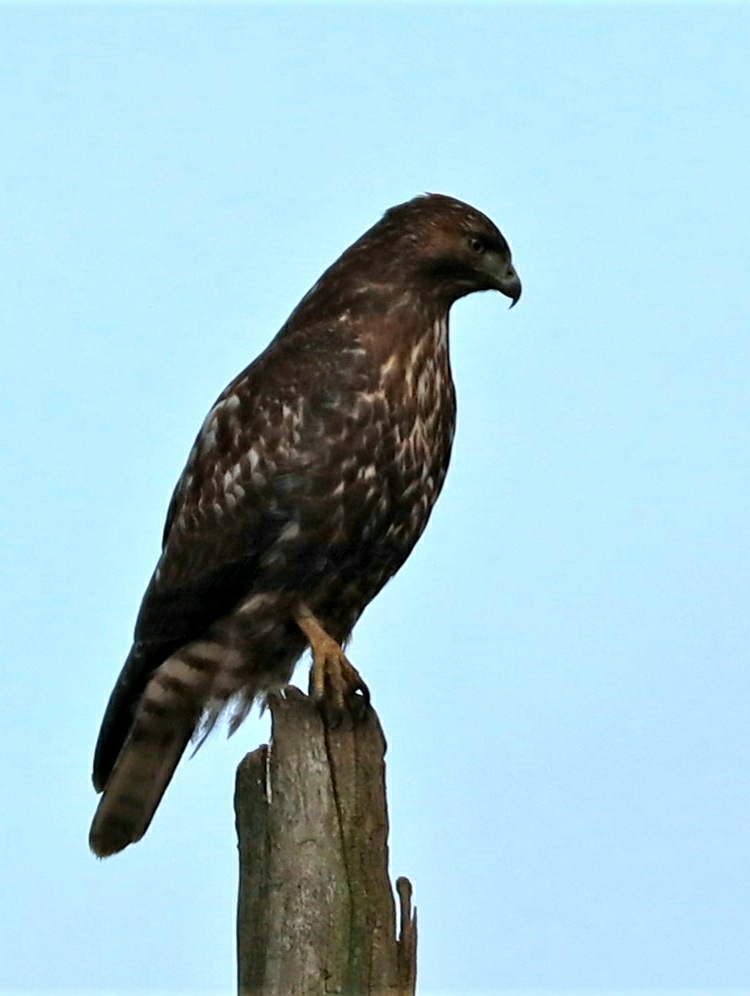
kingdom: Animalia
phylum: Chordata
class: Aves
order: Accipitriformes
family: Accipitridae
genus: Buteo
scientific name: Buteo jamaicensis
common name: Red-tailed hawk
